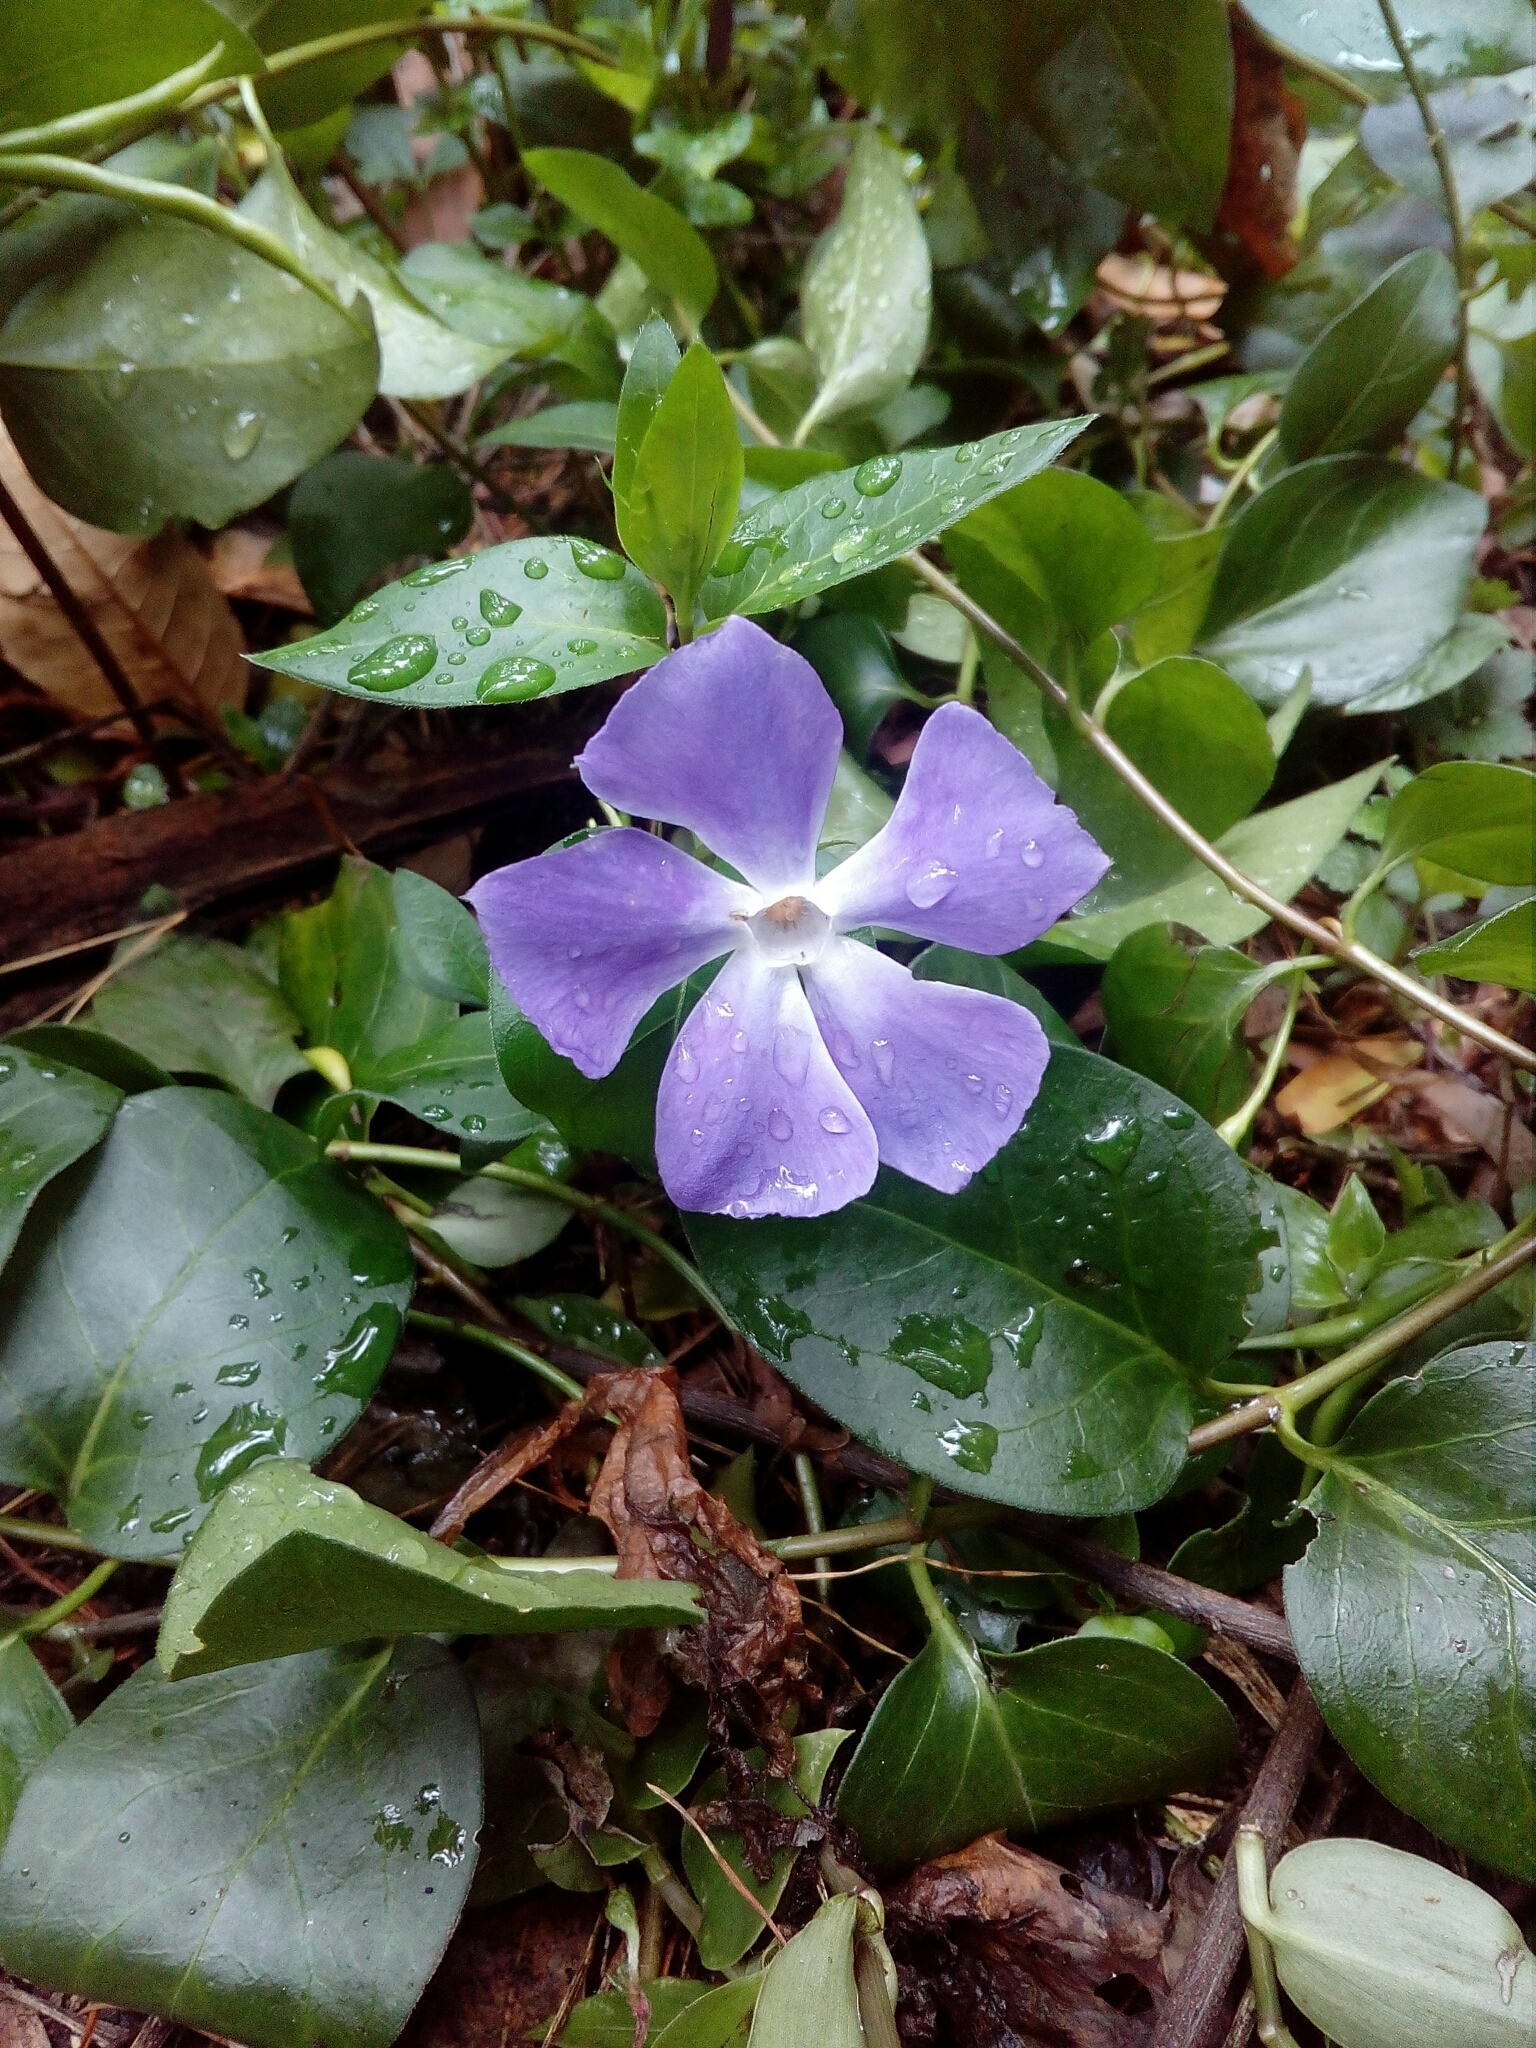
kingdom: Plantae
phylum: Tracheophyta
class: Magnoliopsida
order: Gentianales
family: Apocynaceae
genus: Vinca
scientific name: Vinca major
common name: Greater periwinkle
